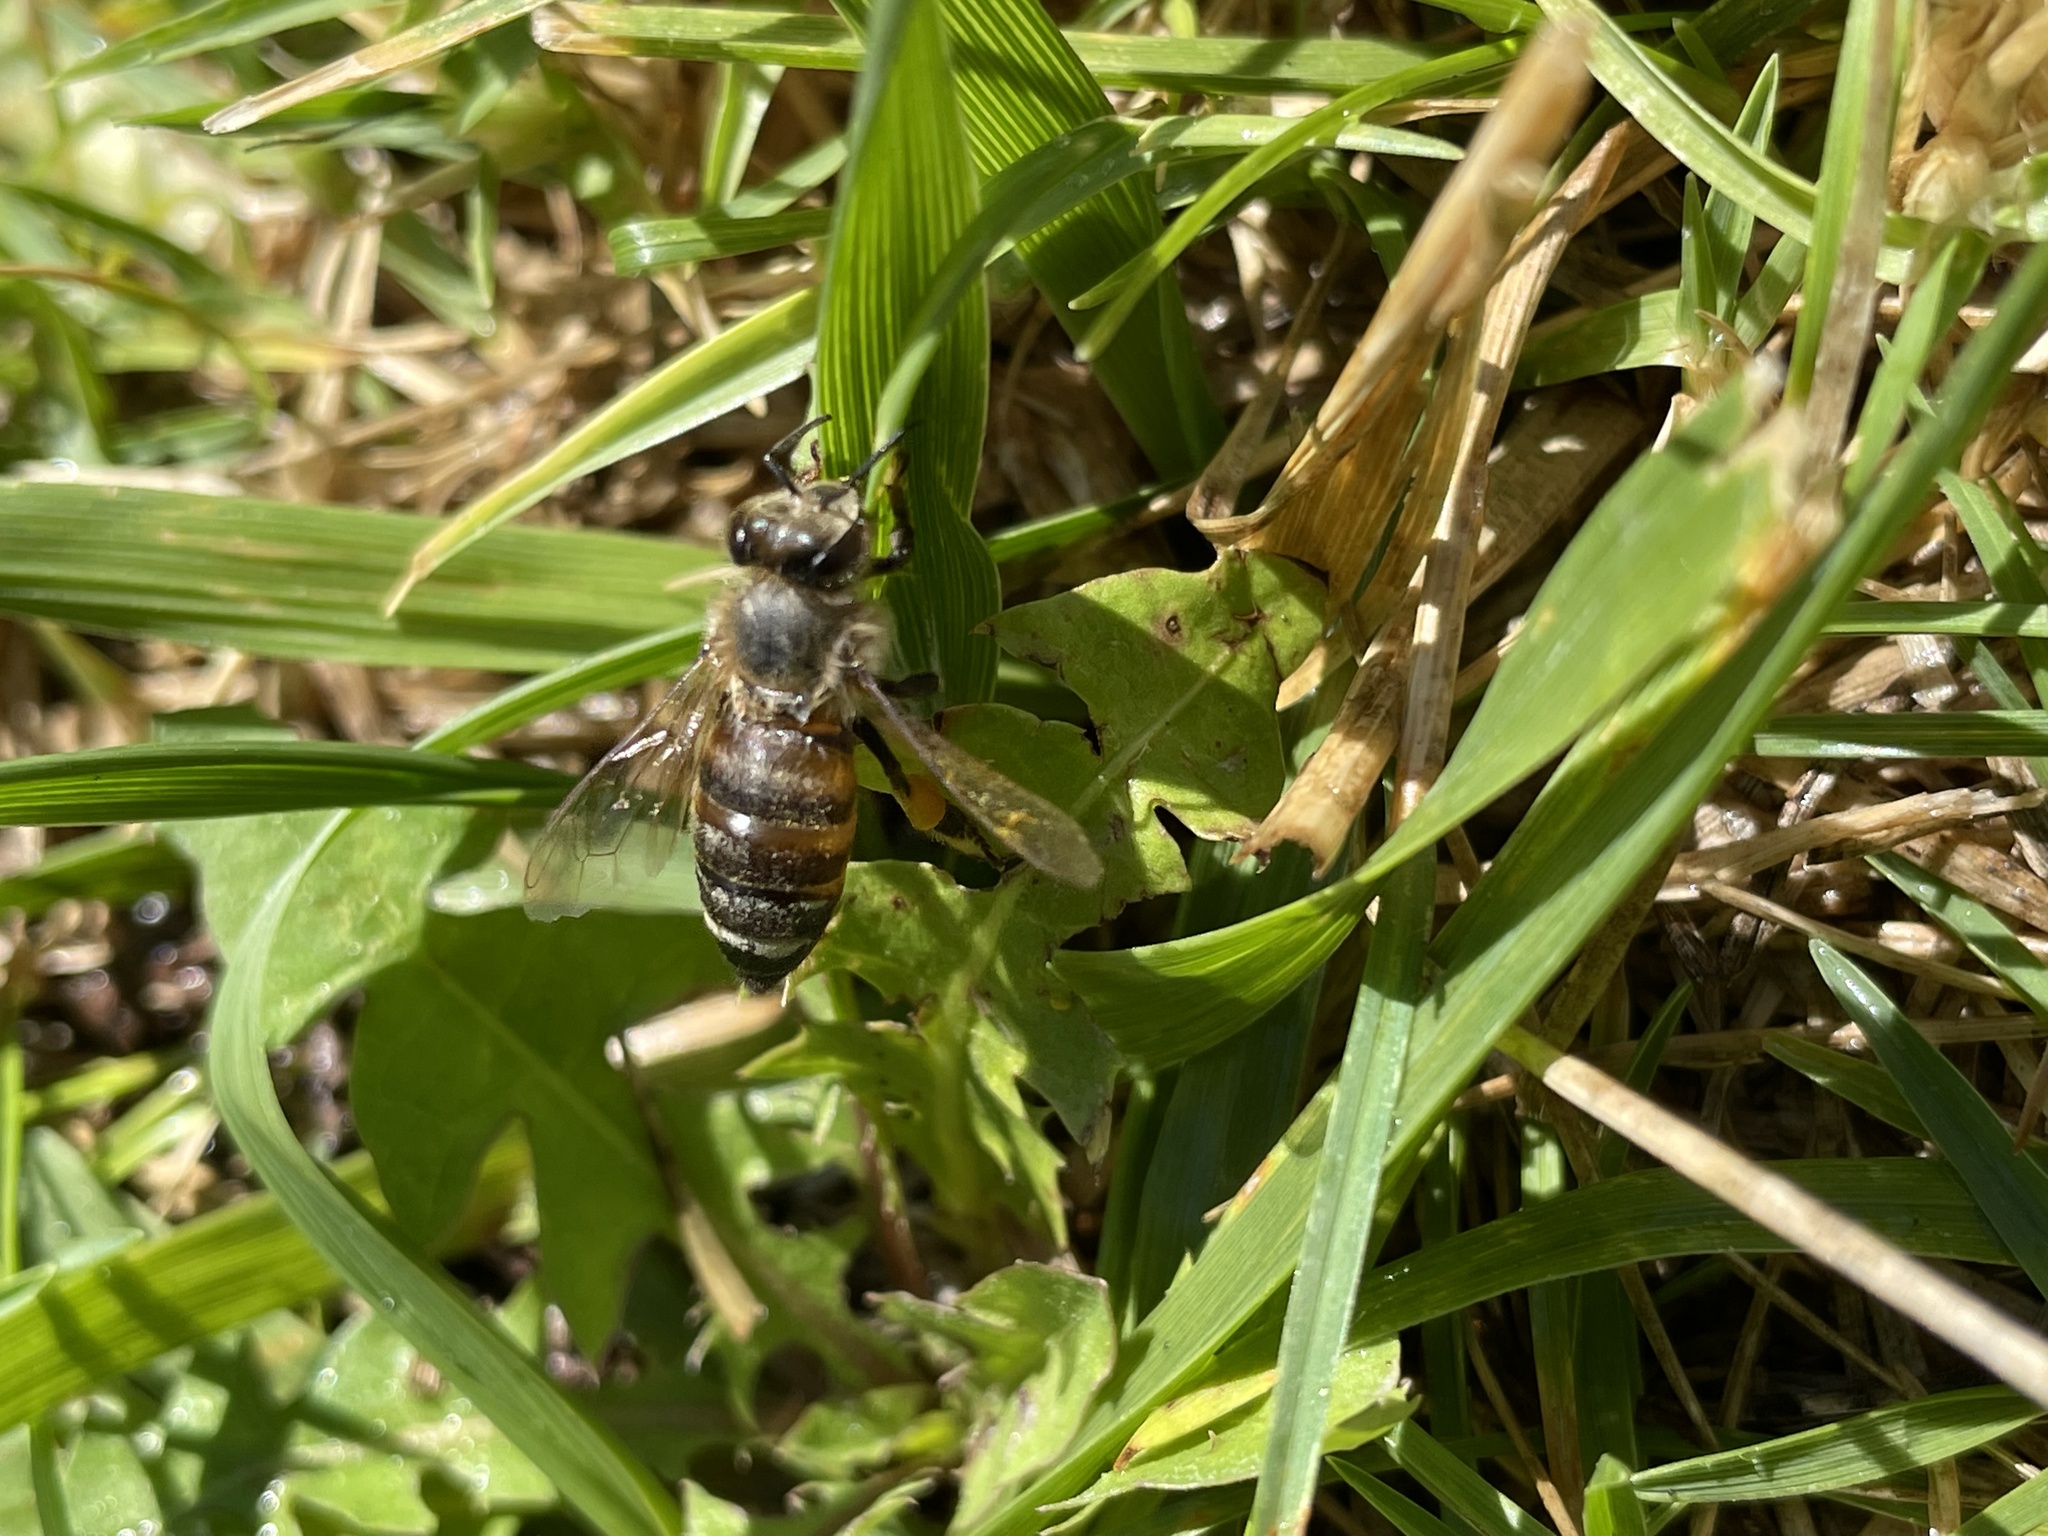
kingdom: Animalia
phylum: Arthropoda
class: Insecta
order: Hymenoptera
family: Apidae
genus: Apis
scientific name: Apis mellifera
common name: Honey bee
